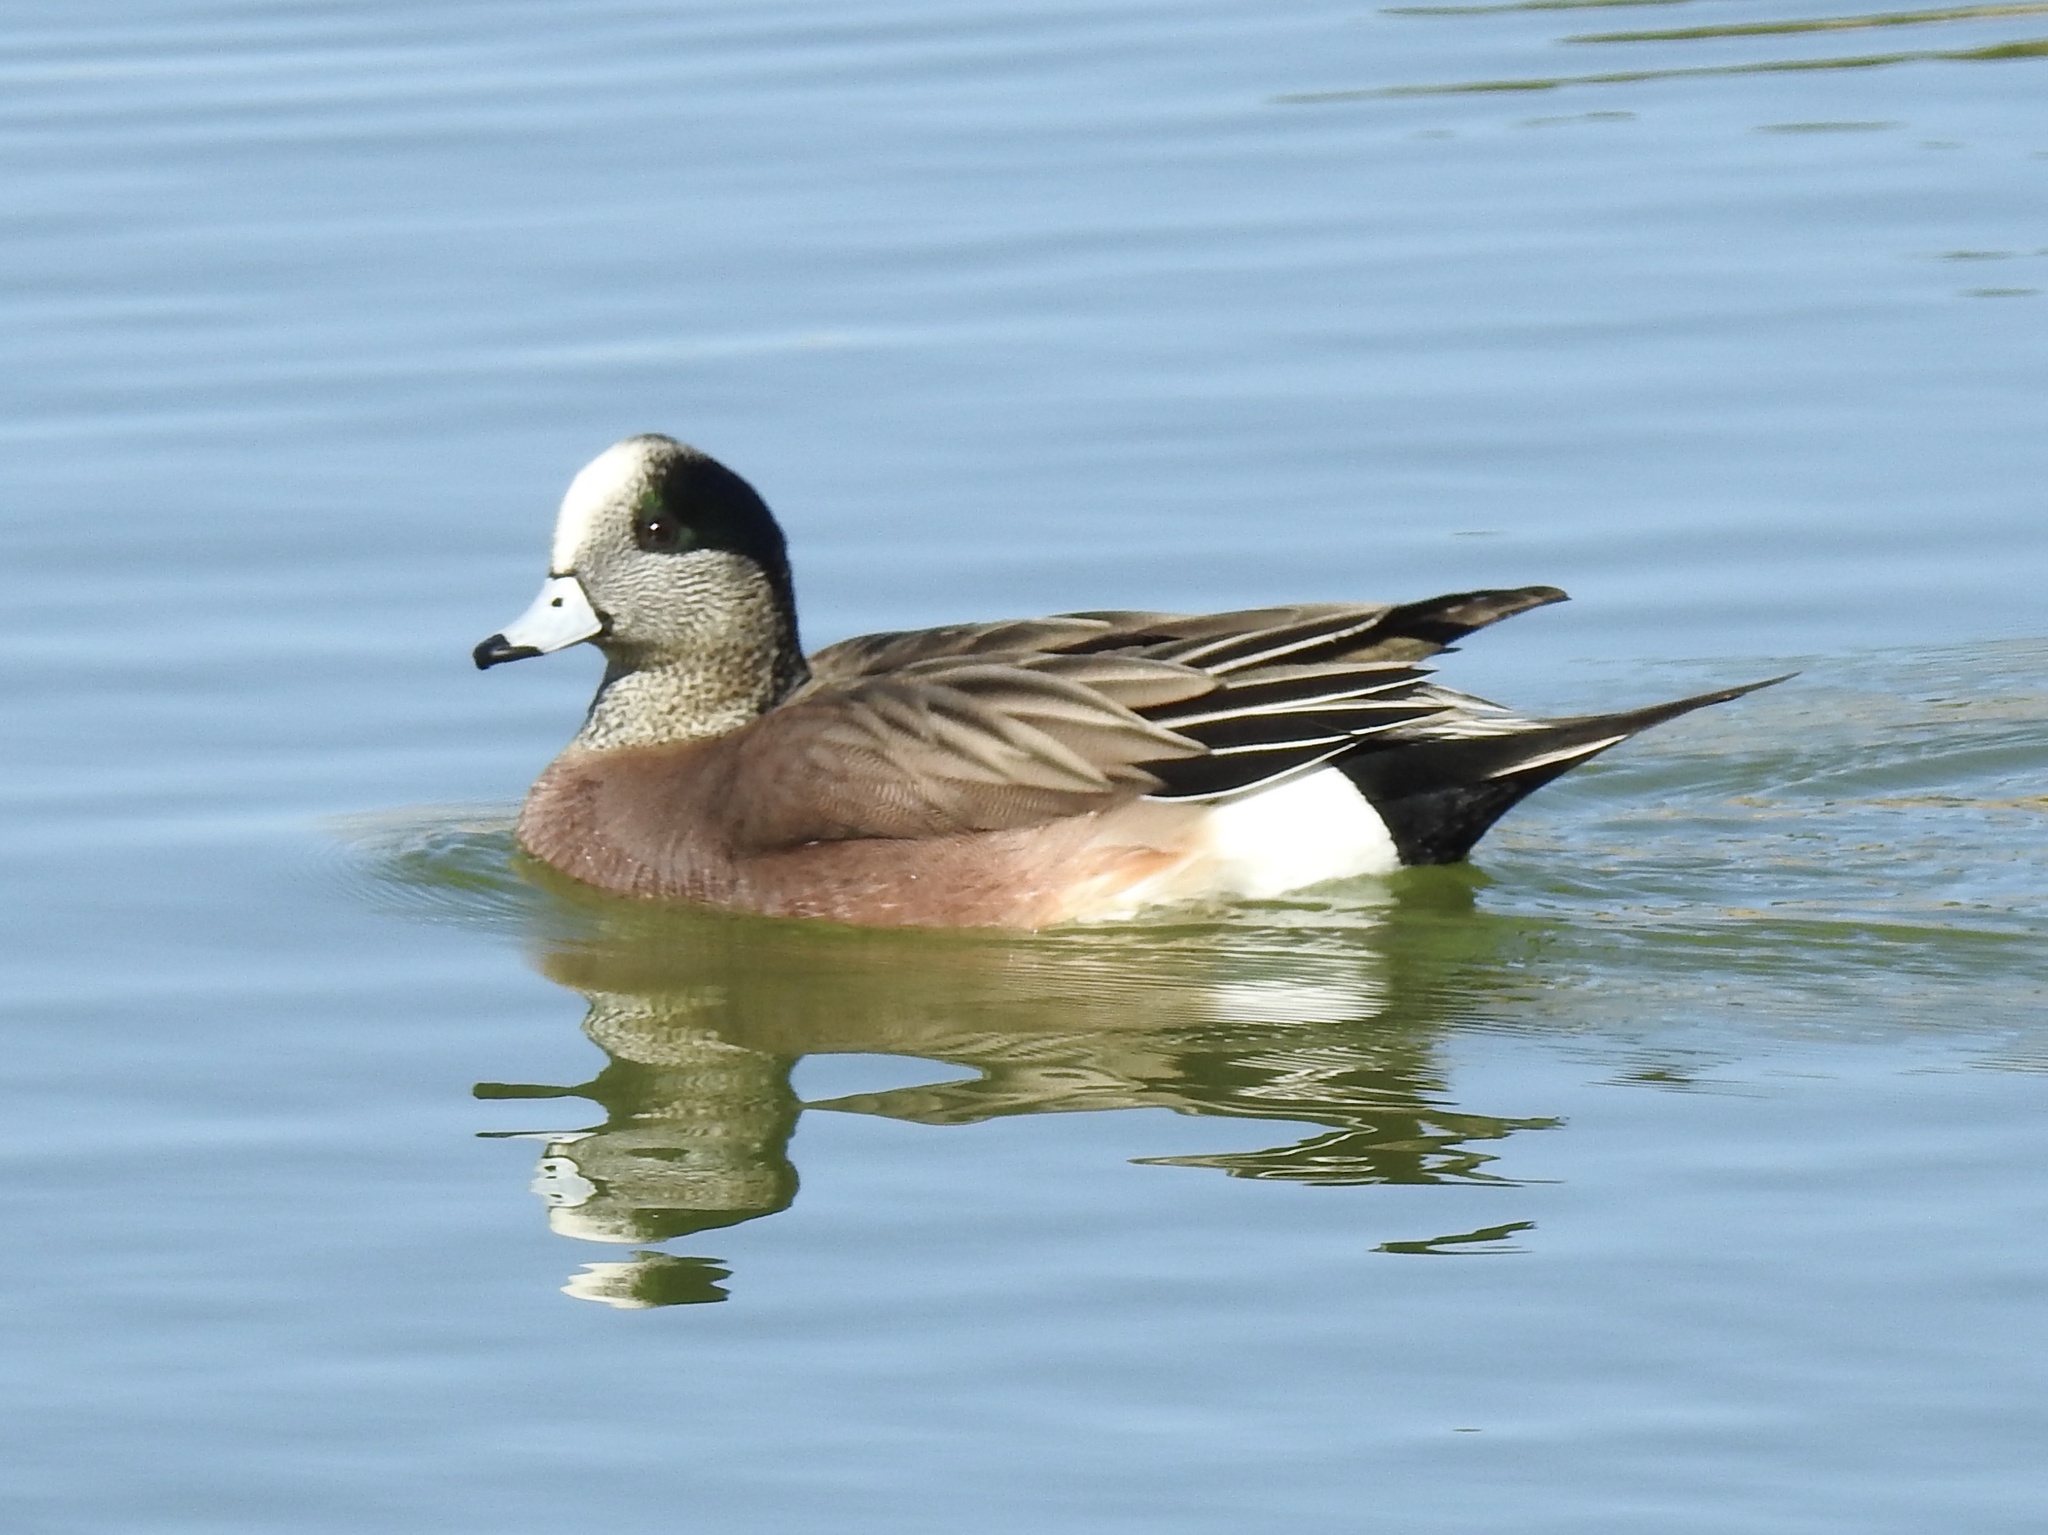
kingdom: Animalia
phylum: Chordata
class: Aves
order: Anseriformes
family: Anatidae
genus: Mareca
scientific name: Mareca americana
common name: American wigeon
